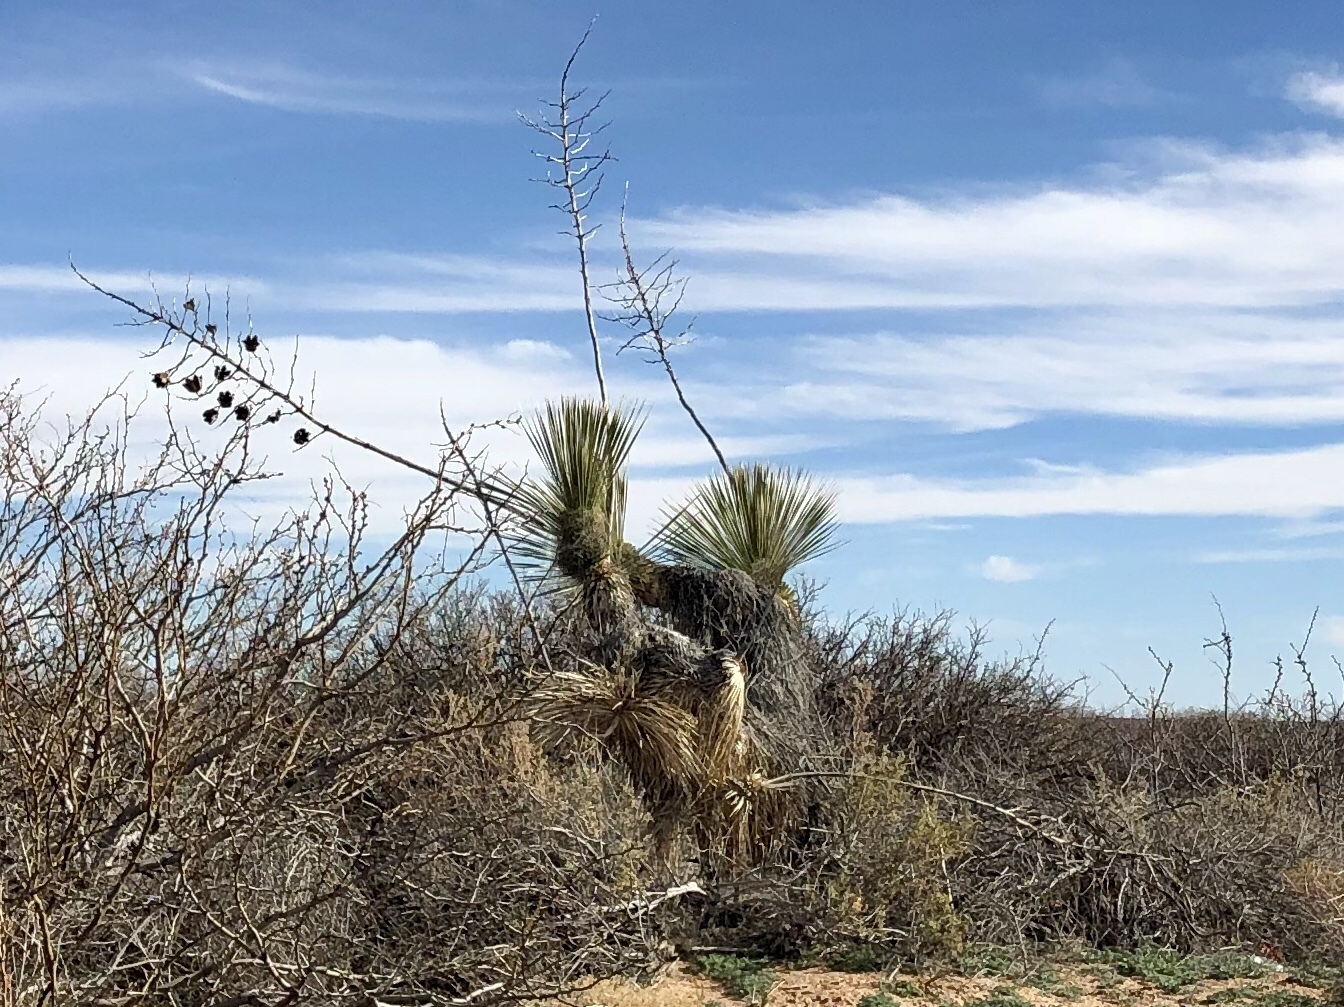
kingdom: Plantae
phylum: Tracheophyta
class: Liliopsida
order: Asparagales
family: Asparagaceae
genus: Yucca
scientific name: Yucca elata
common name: Palmella
